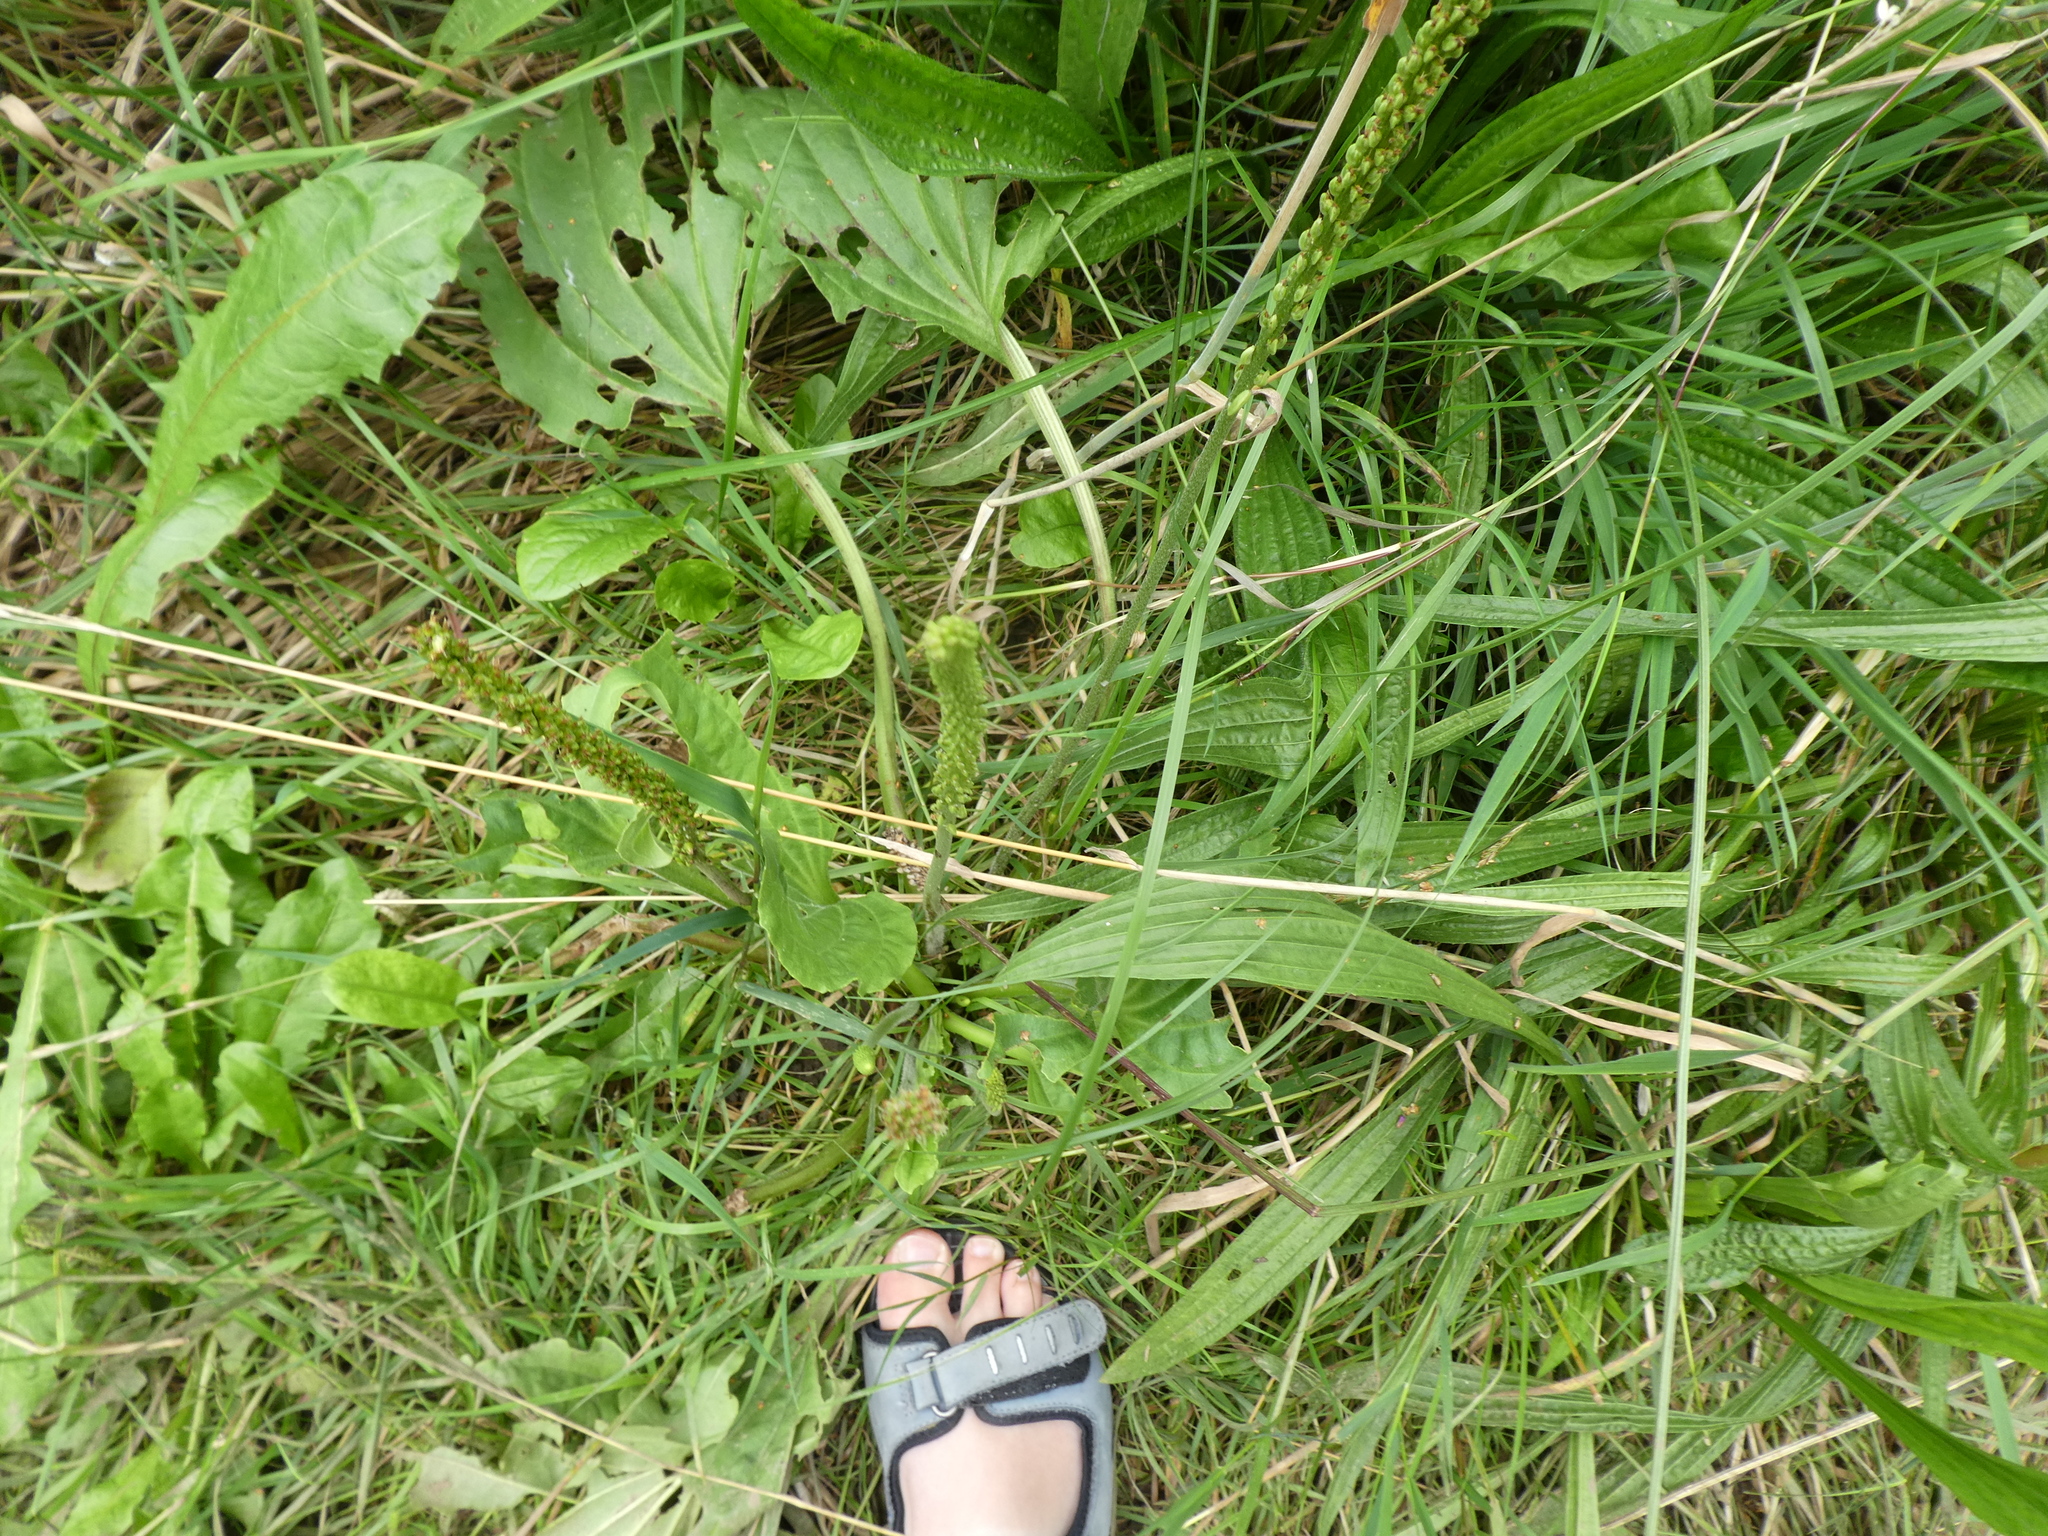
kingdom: Plantae
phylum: Tracheophyta
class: Magnoliopsida
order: Lamiales
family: Plantaginaceae
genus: Plantago
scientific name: Plantago major
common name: Common plantain
